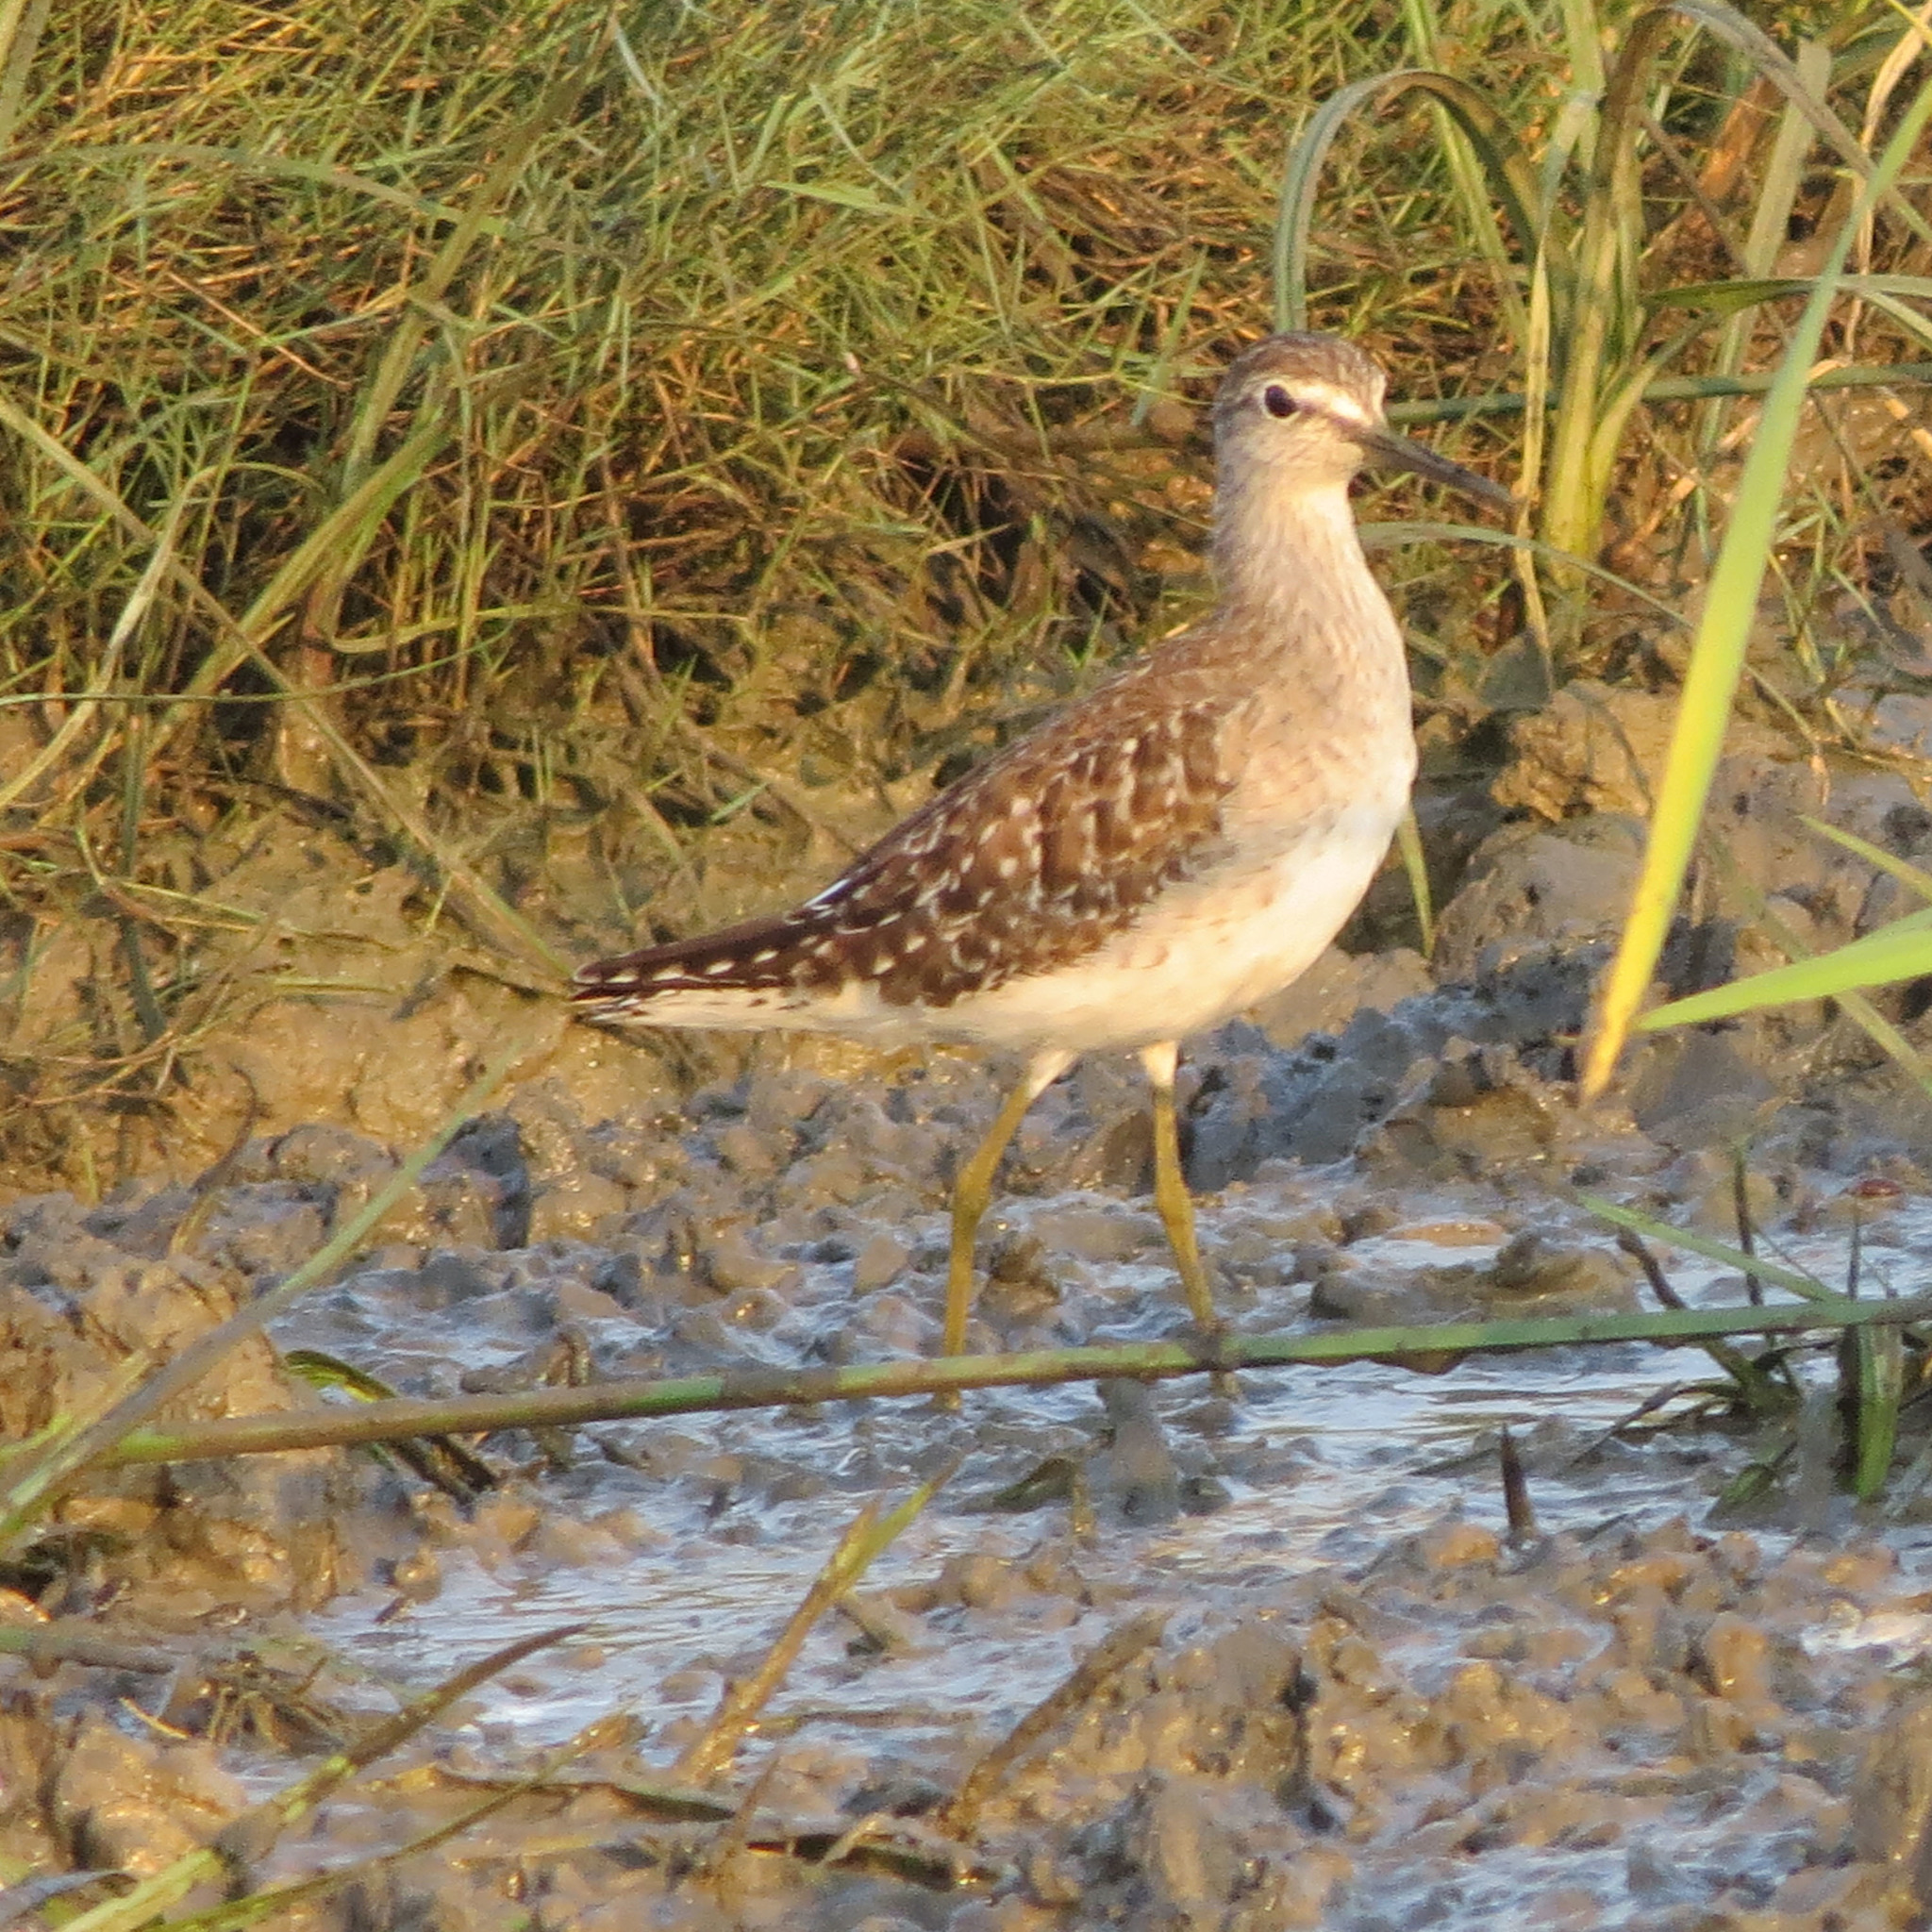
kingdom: Animalia
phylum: Chordata
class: Aves
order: Charadriiformes
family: Scolopacidae
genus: Tringa
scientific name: Tringa glareola
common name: Wood sandpiper
